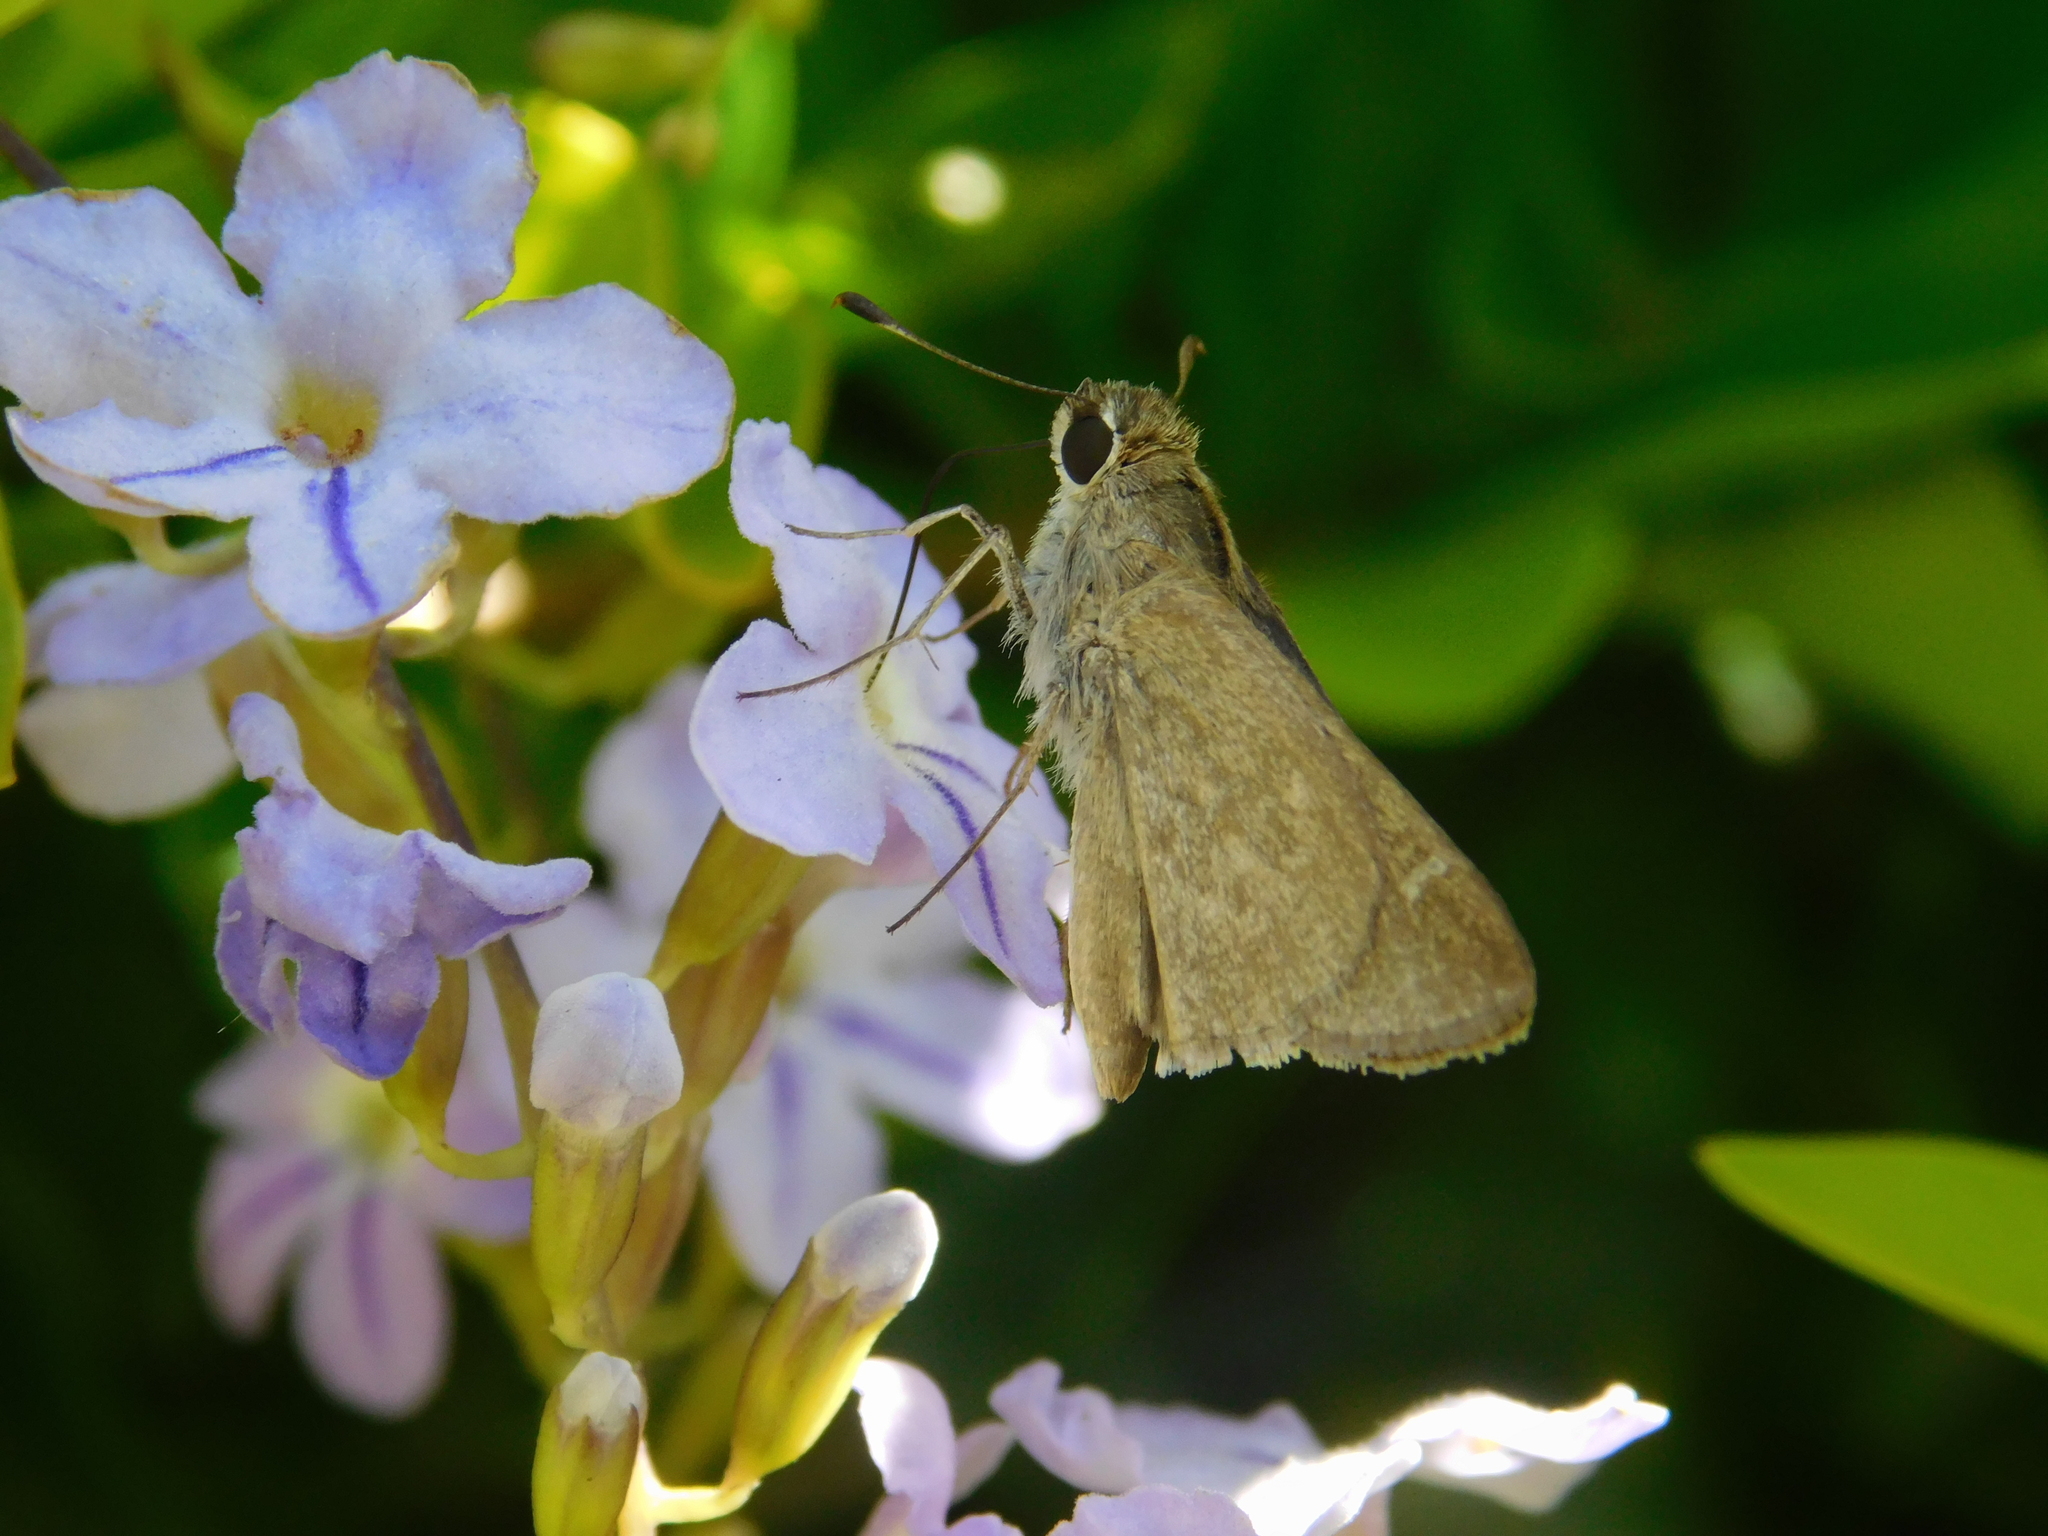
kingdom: Animalia
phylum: Arthropoda
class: Insecta
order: Lepidoptera
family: Hesperiidae
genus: Lerodea
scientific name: Lerodea eufala
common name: Eufala skipper
